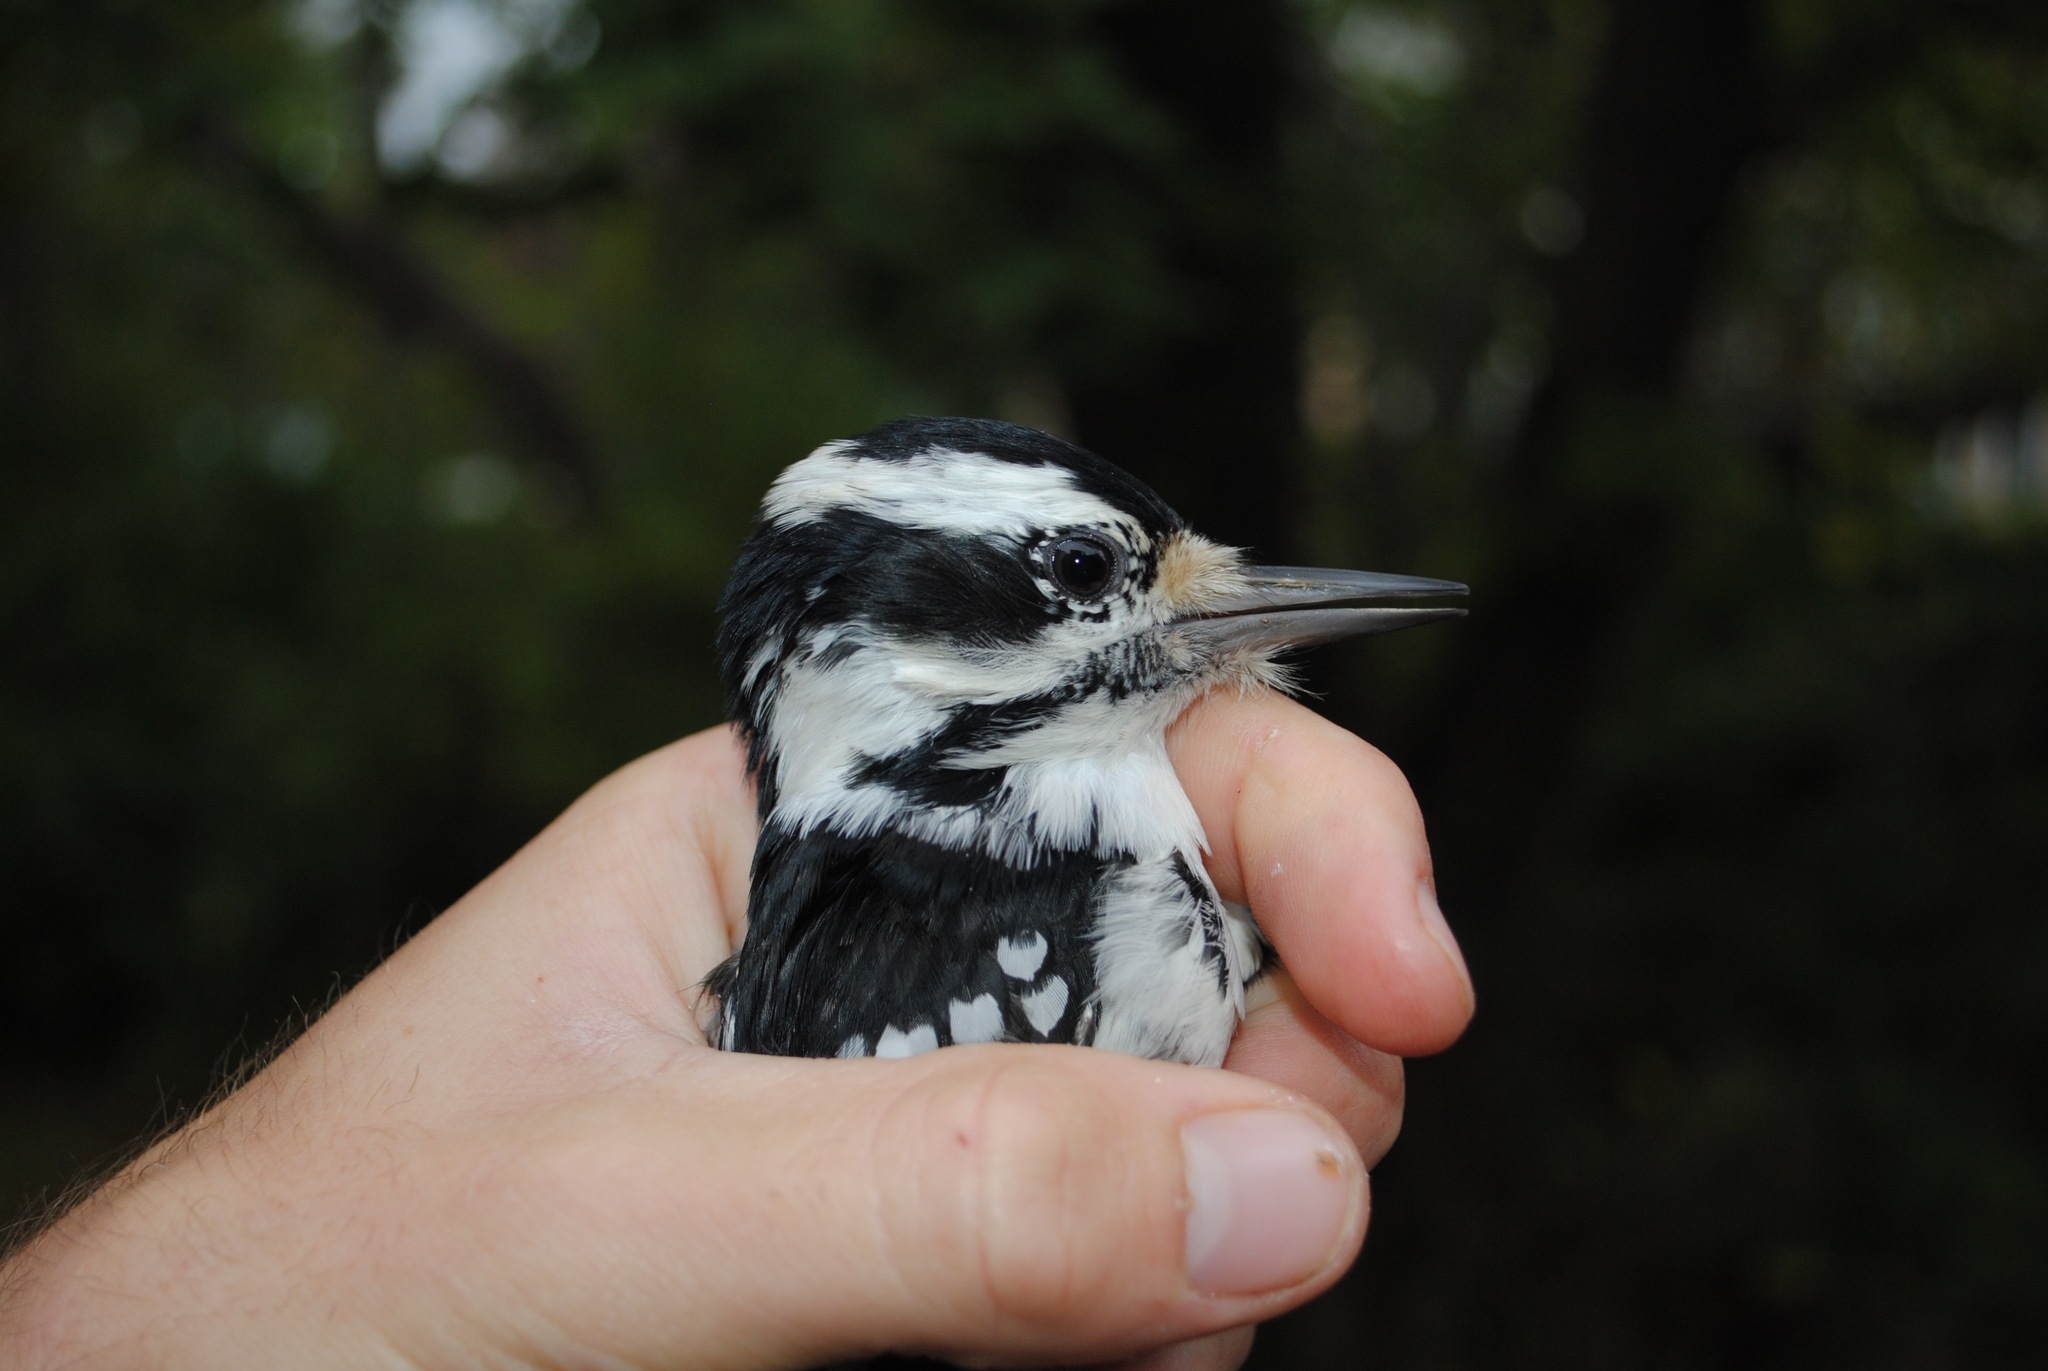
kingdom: Animalia
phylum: Chordata
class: Aves
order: Piciformes
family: Picidae
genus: Dryobates
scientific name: Dryobates pubescens
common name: Downy woodpecker
